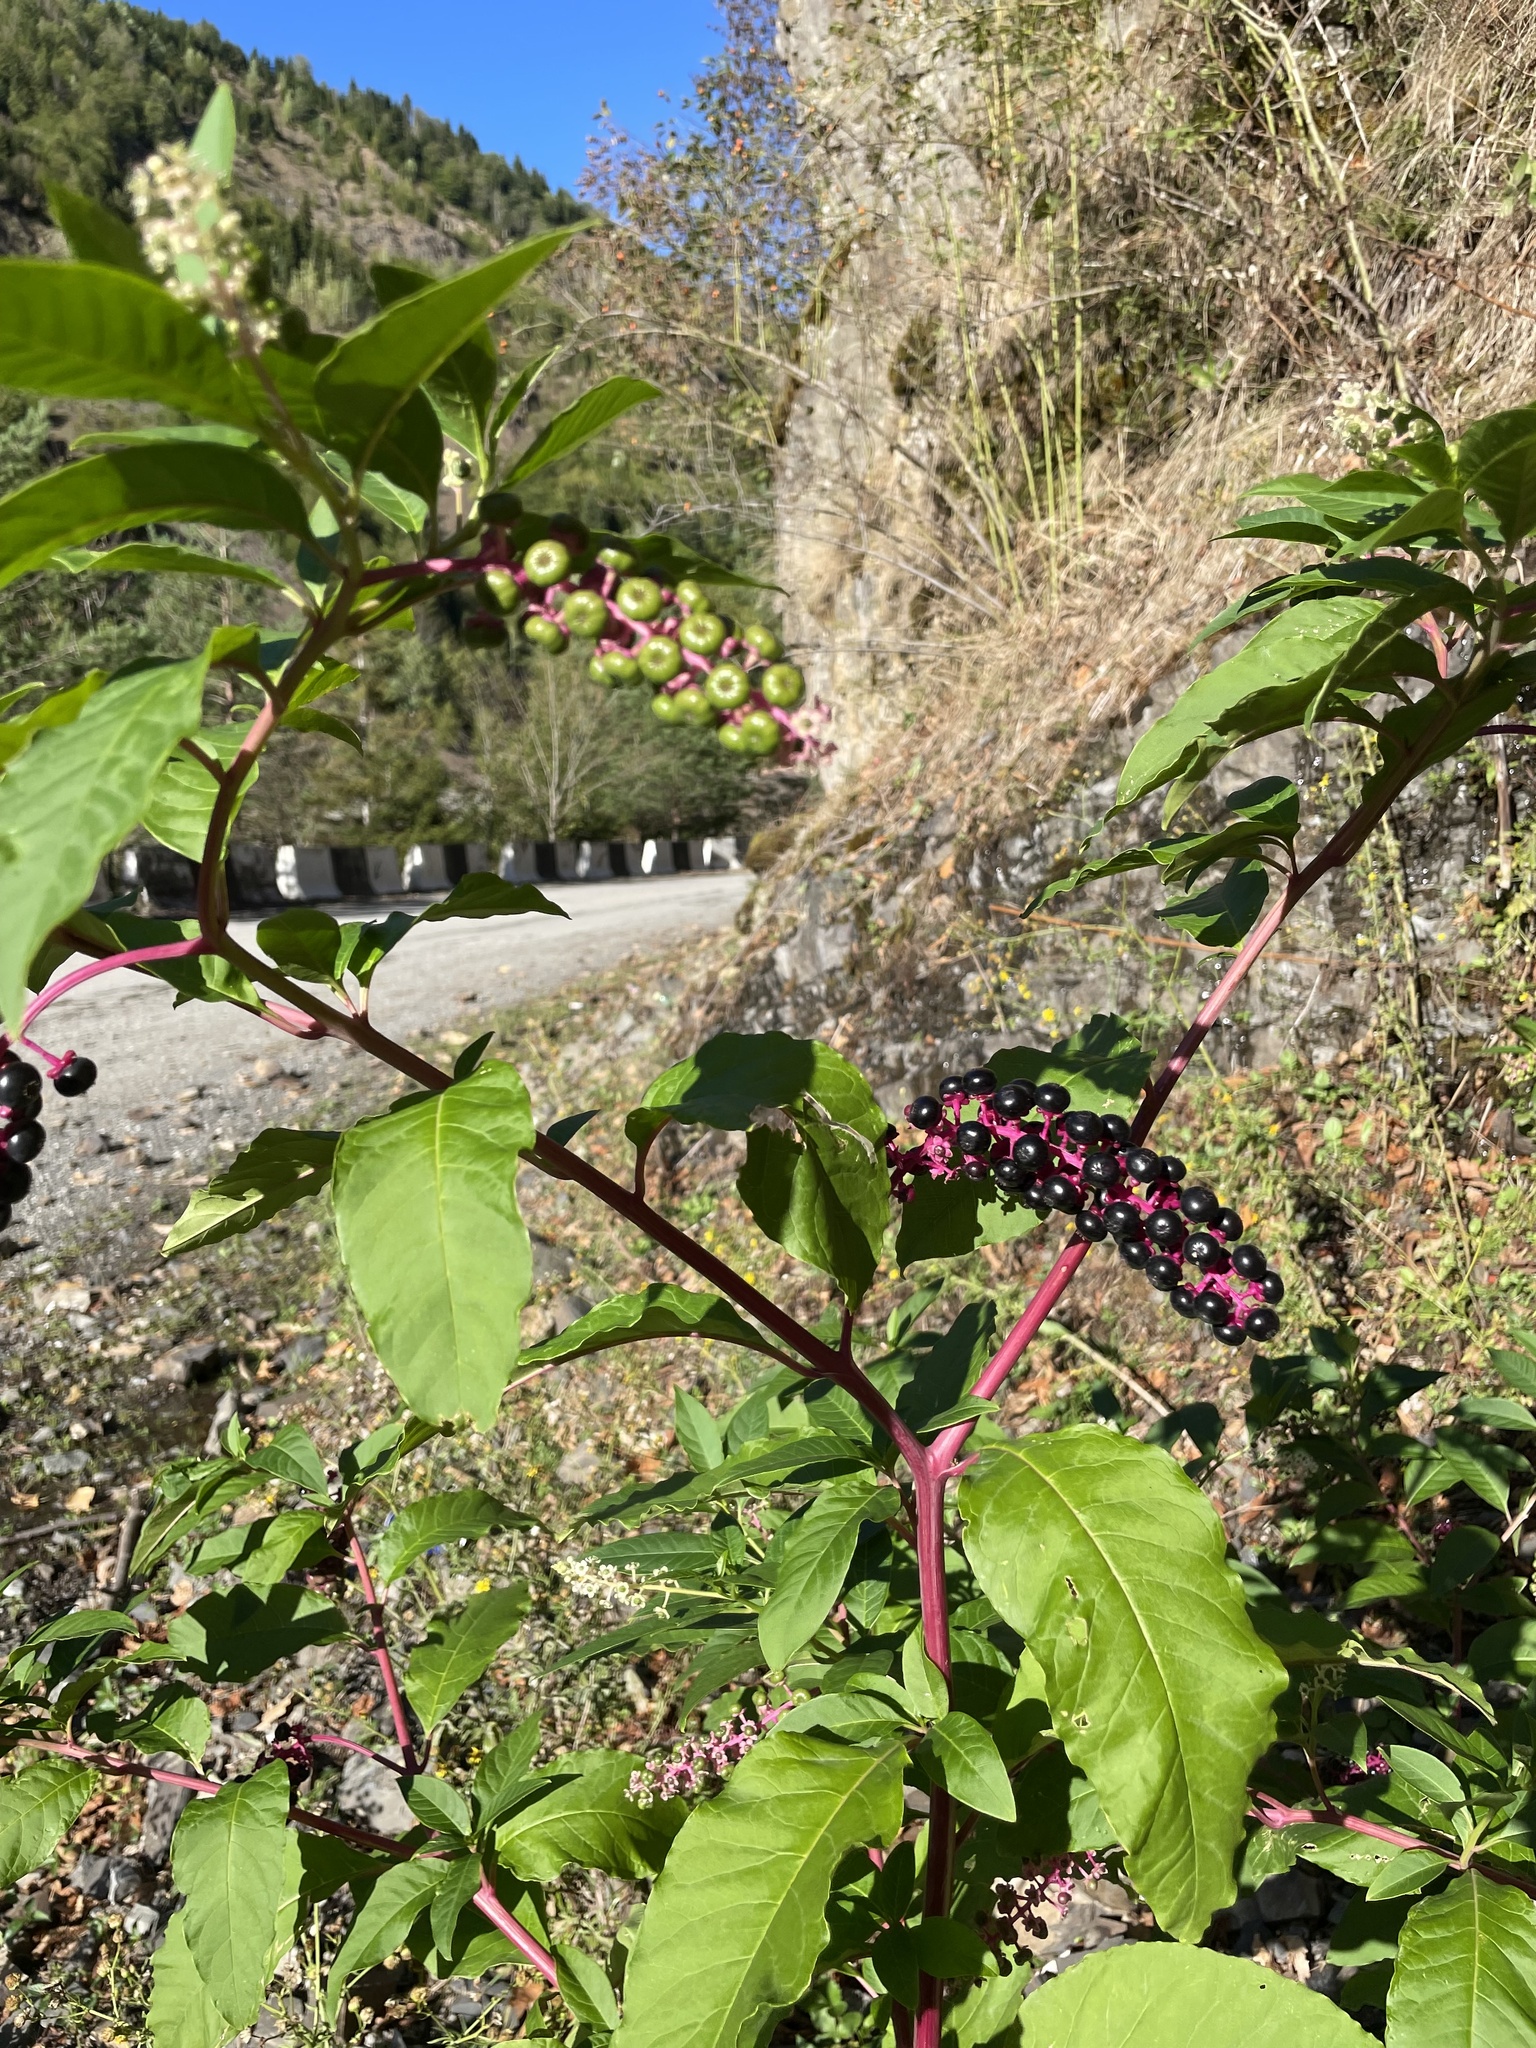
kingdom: Plantae
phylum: Tracheophyta
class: Magnoliopsida
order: Caryophyllales
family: Phytolaccaceae
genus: Phytolacca
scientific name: Phytolacca americana
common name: American pokeweed
